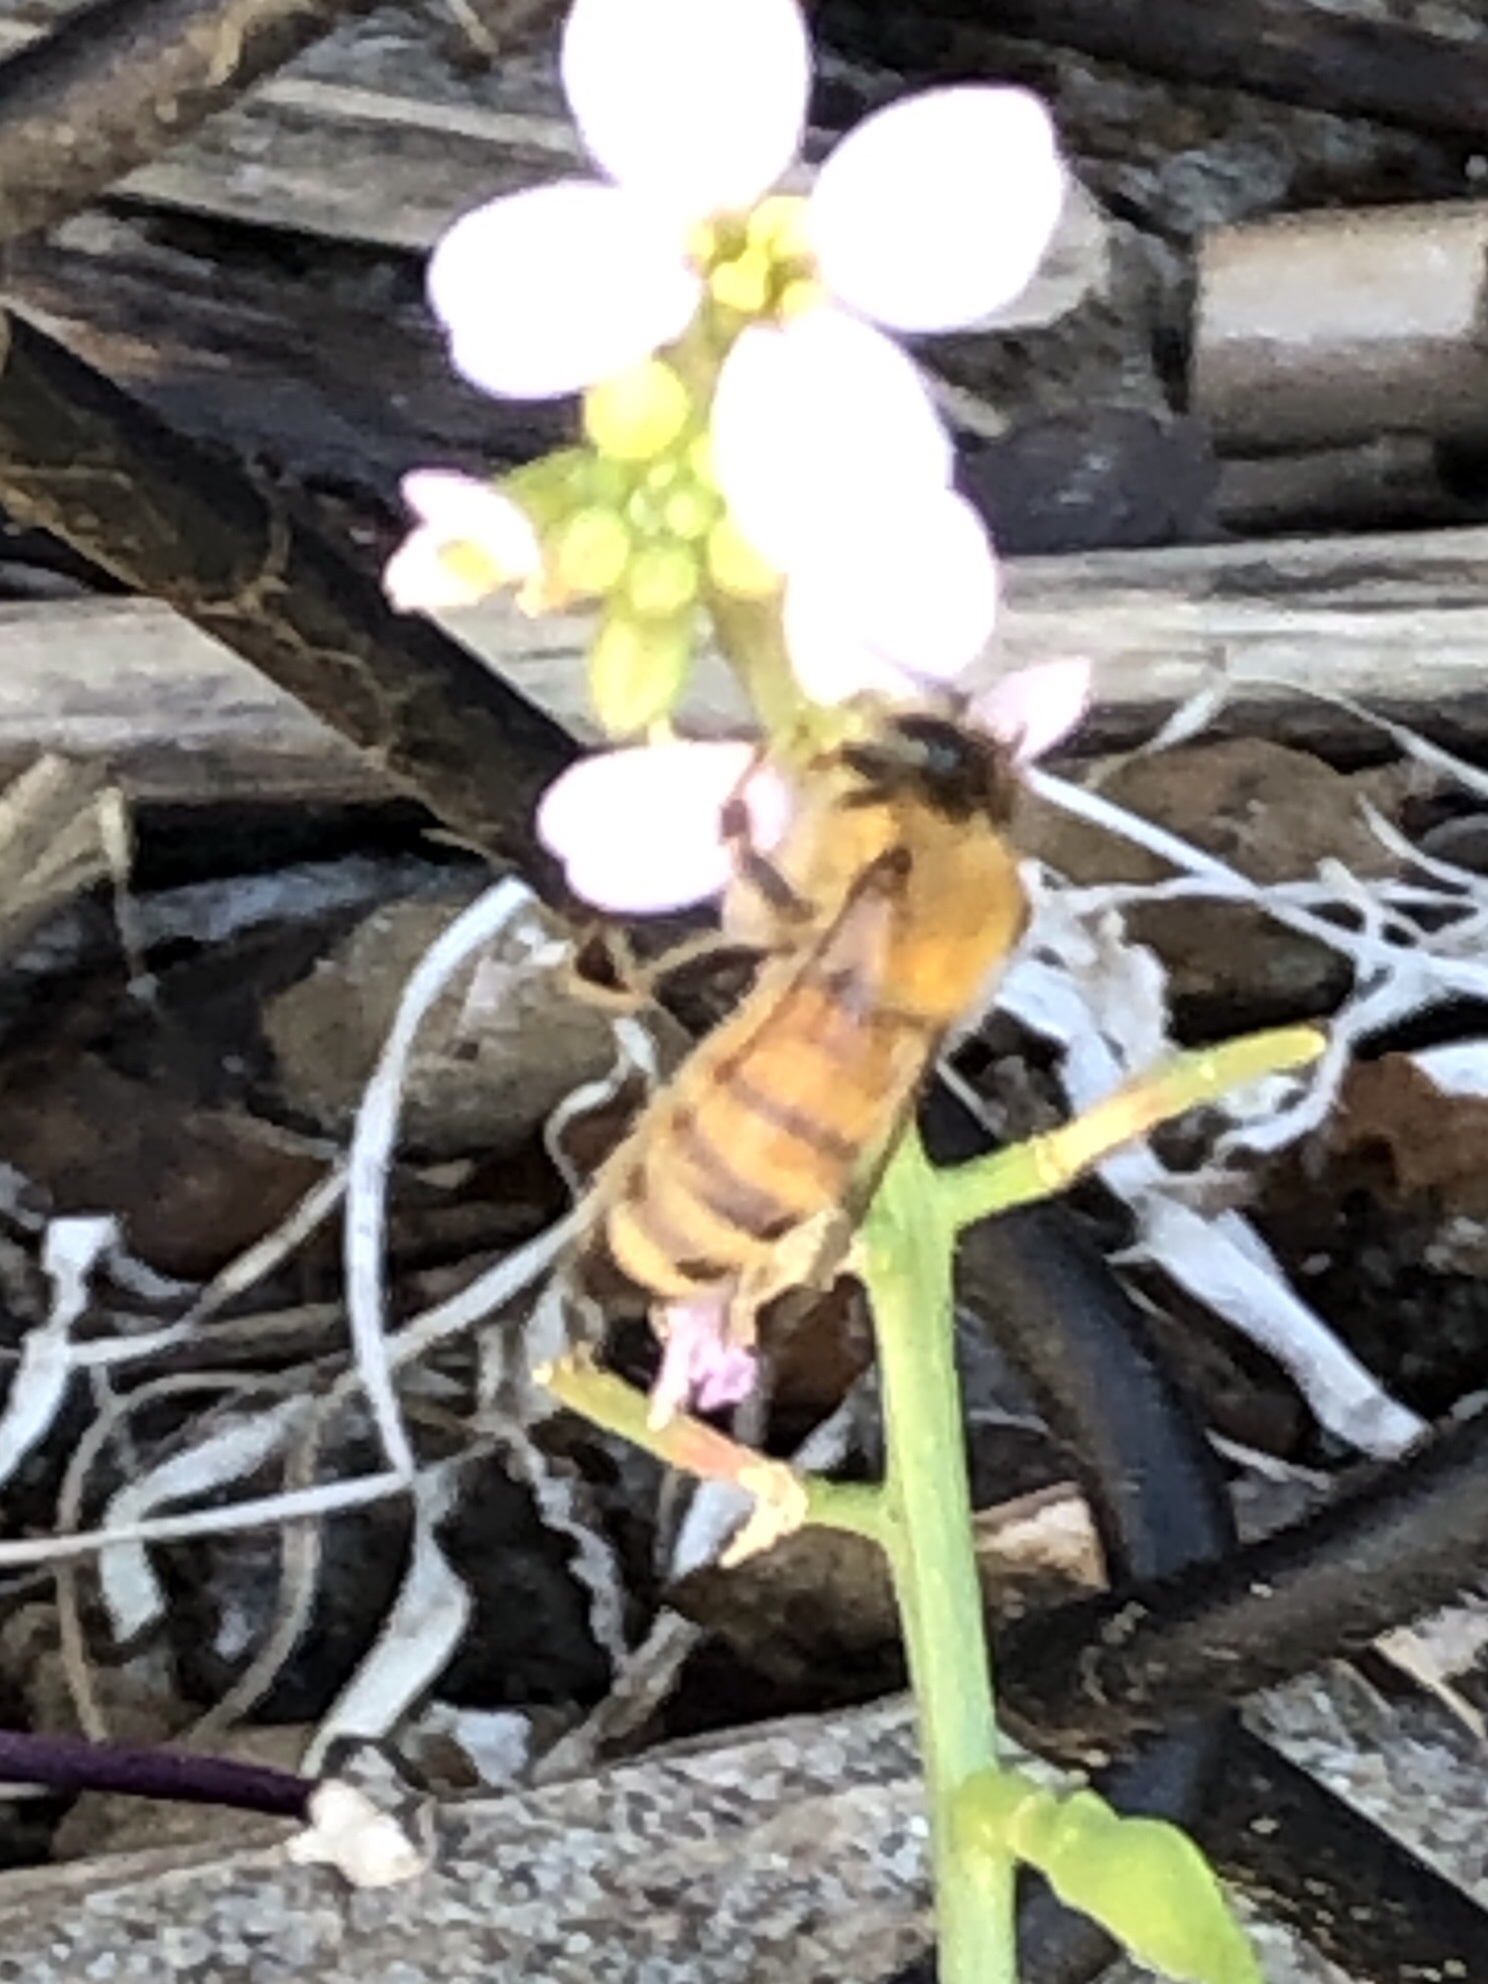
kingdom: Animalia
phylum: Arthropoda
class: Insecta
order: Hymenoptera
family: Apidae
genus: Apis
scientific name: Apis mellifera
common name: Honey bee
